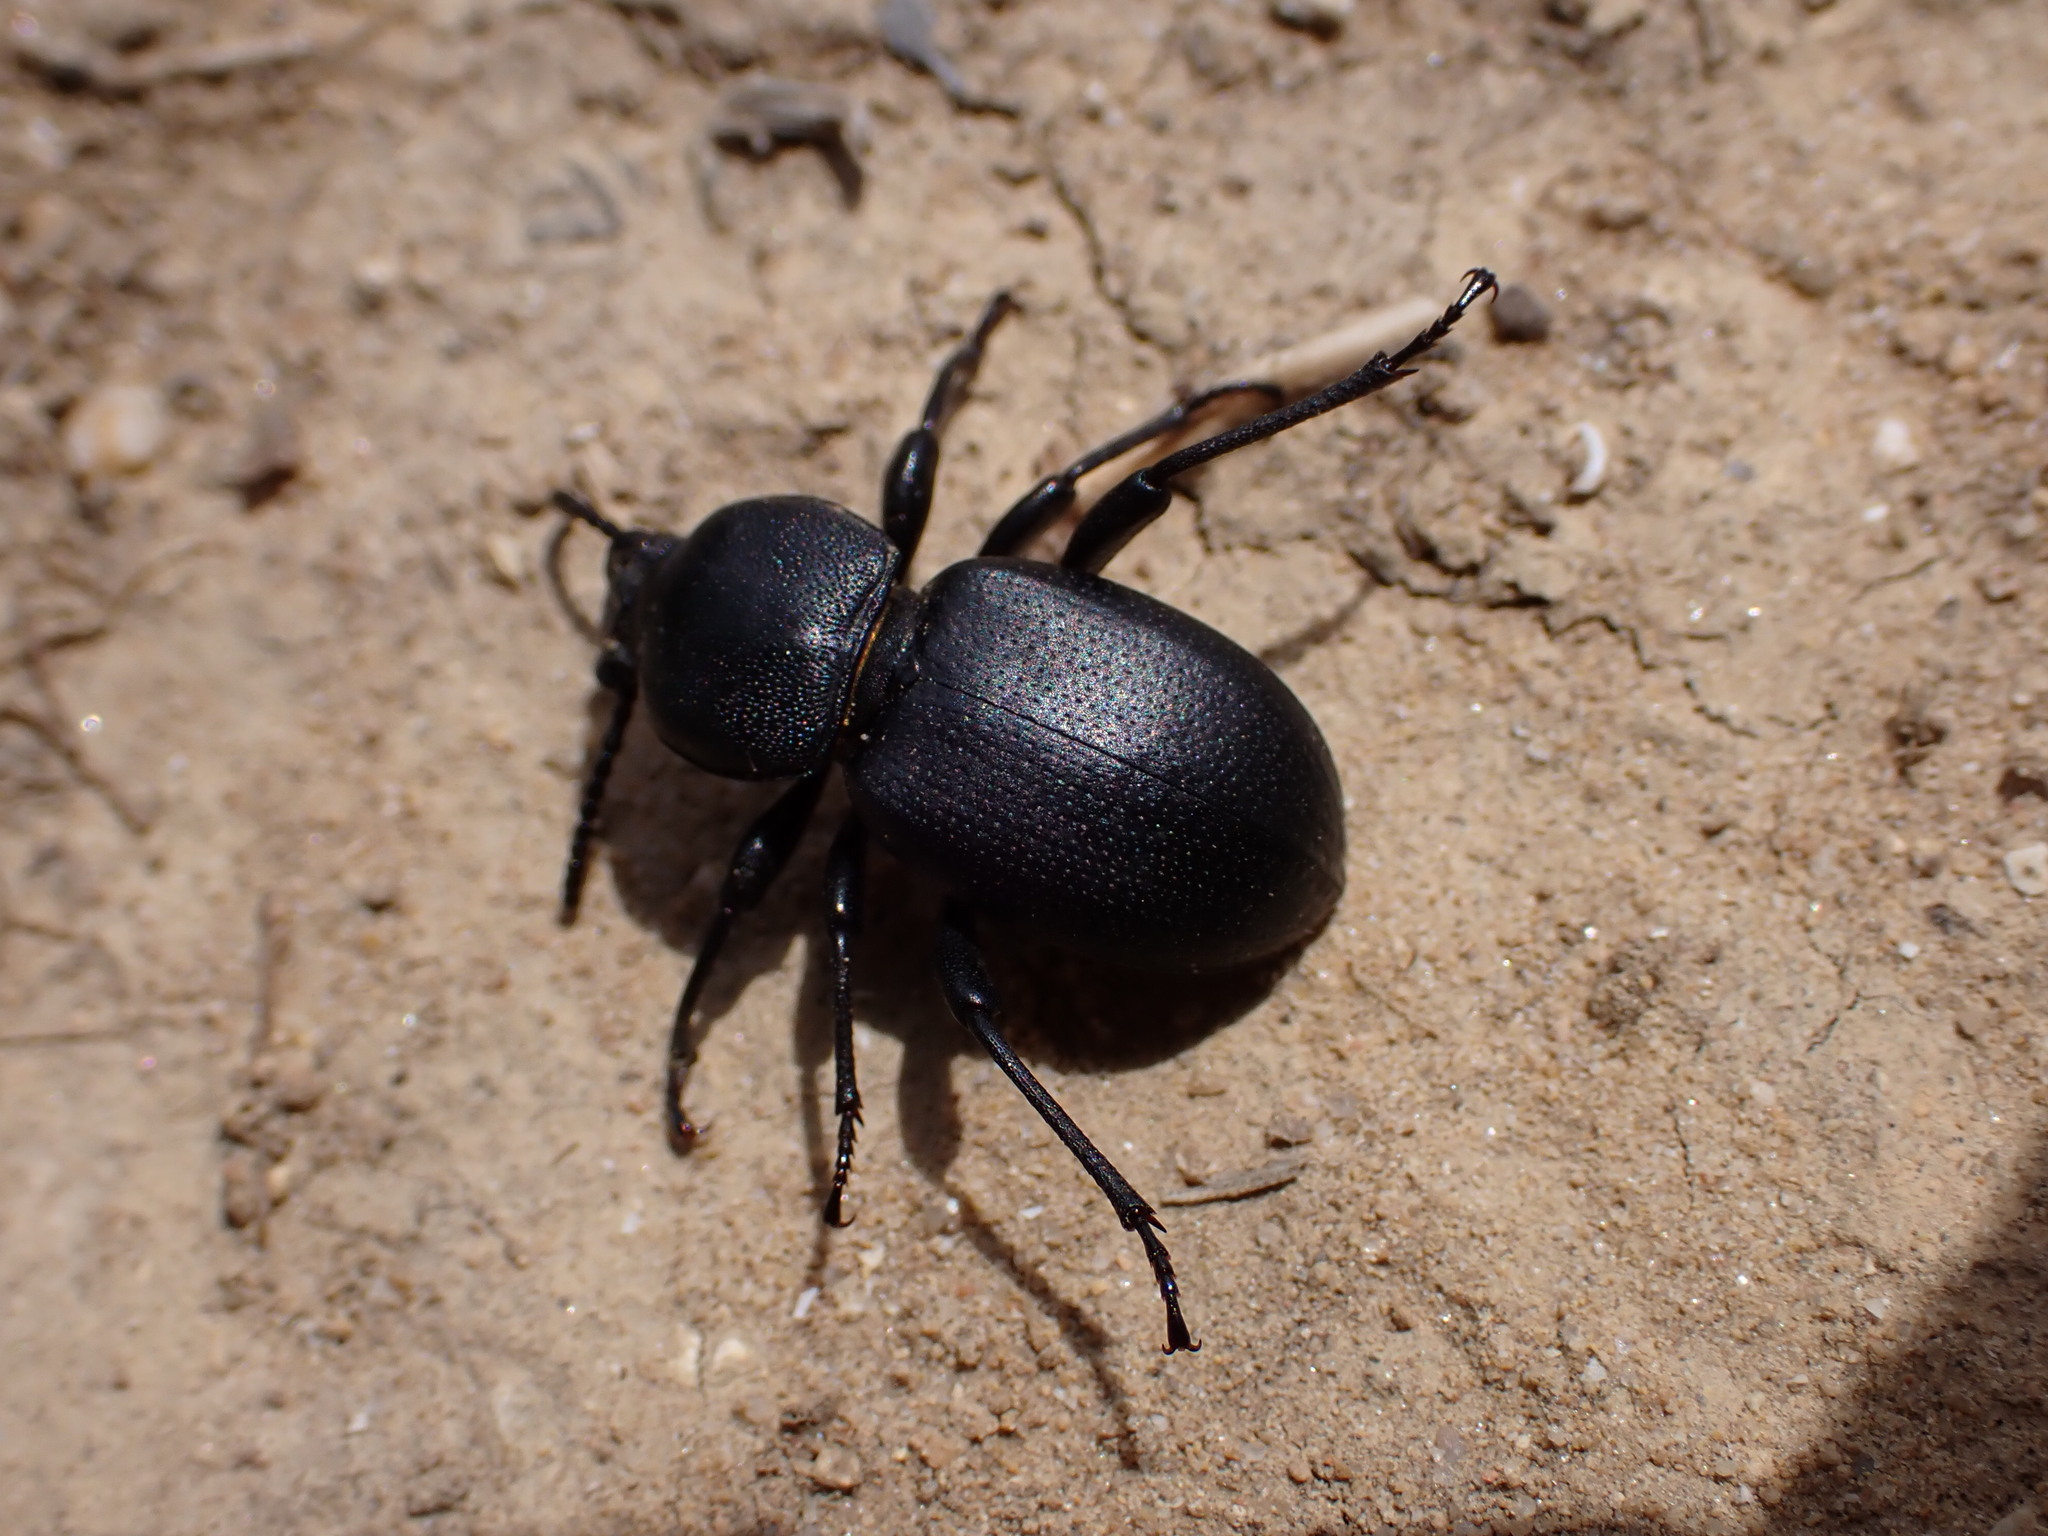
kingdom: Animalia
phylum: Arthropoda
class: Insecta
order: Coleoptera
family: Tenebrionidae
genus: Scaurus
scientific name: Scaurus atratus
